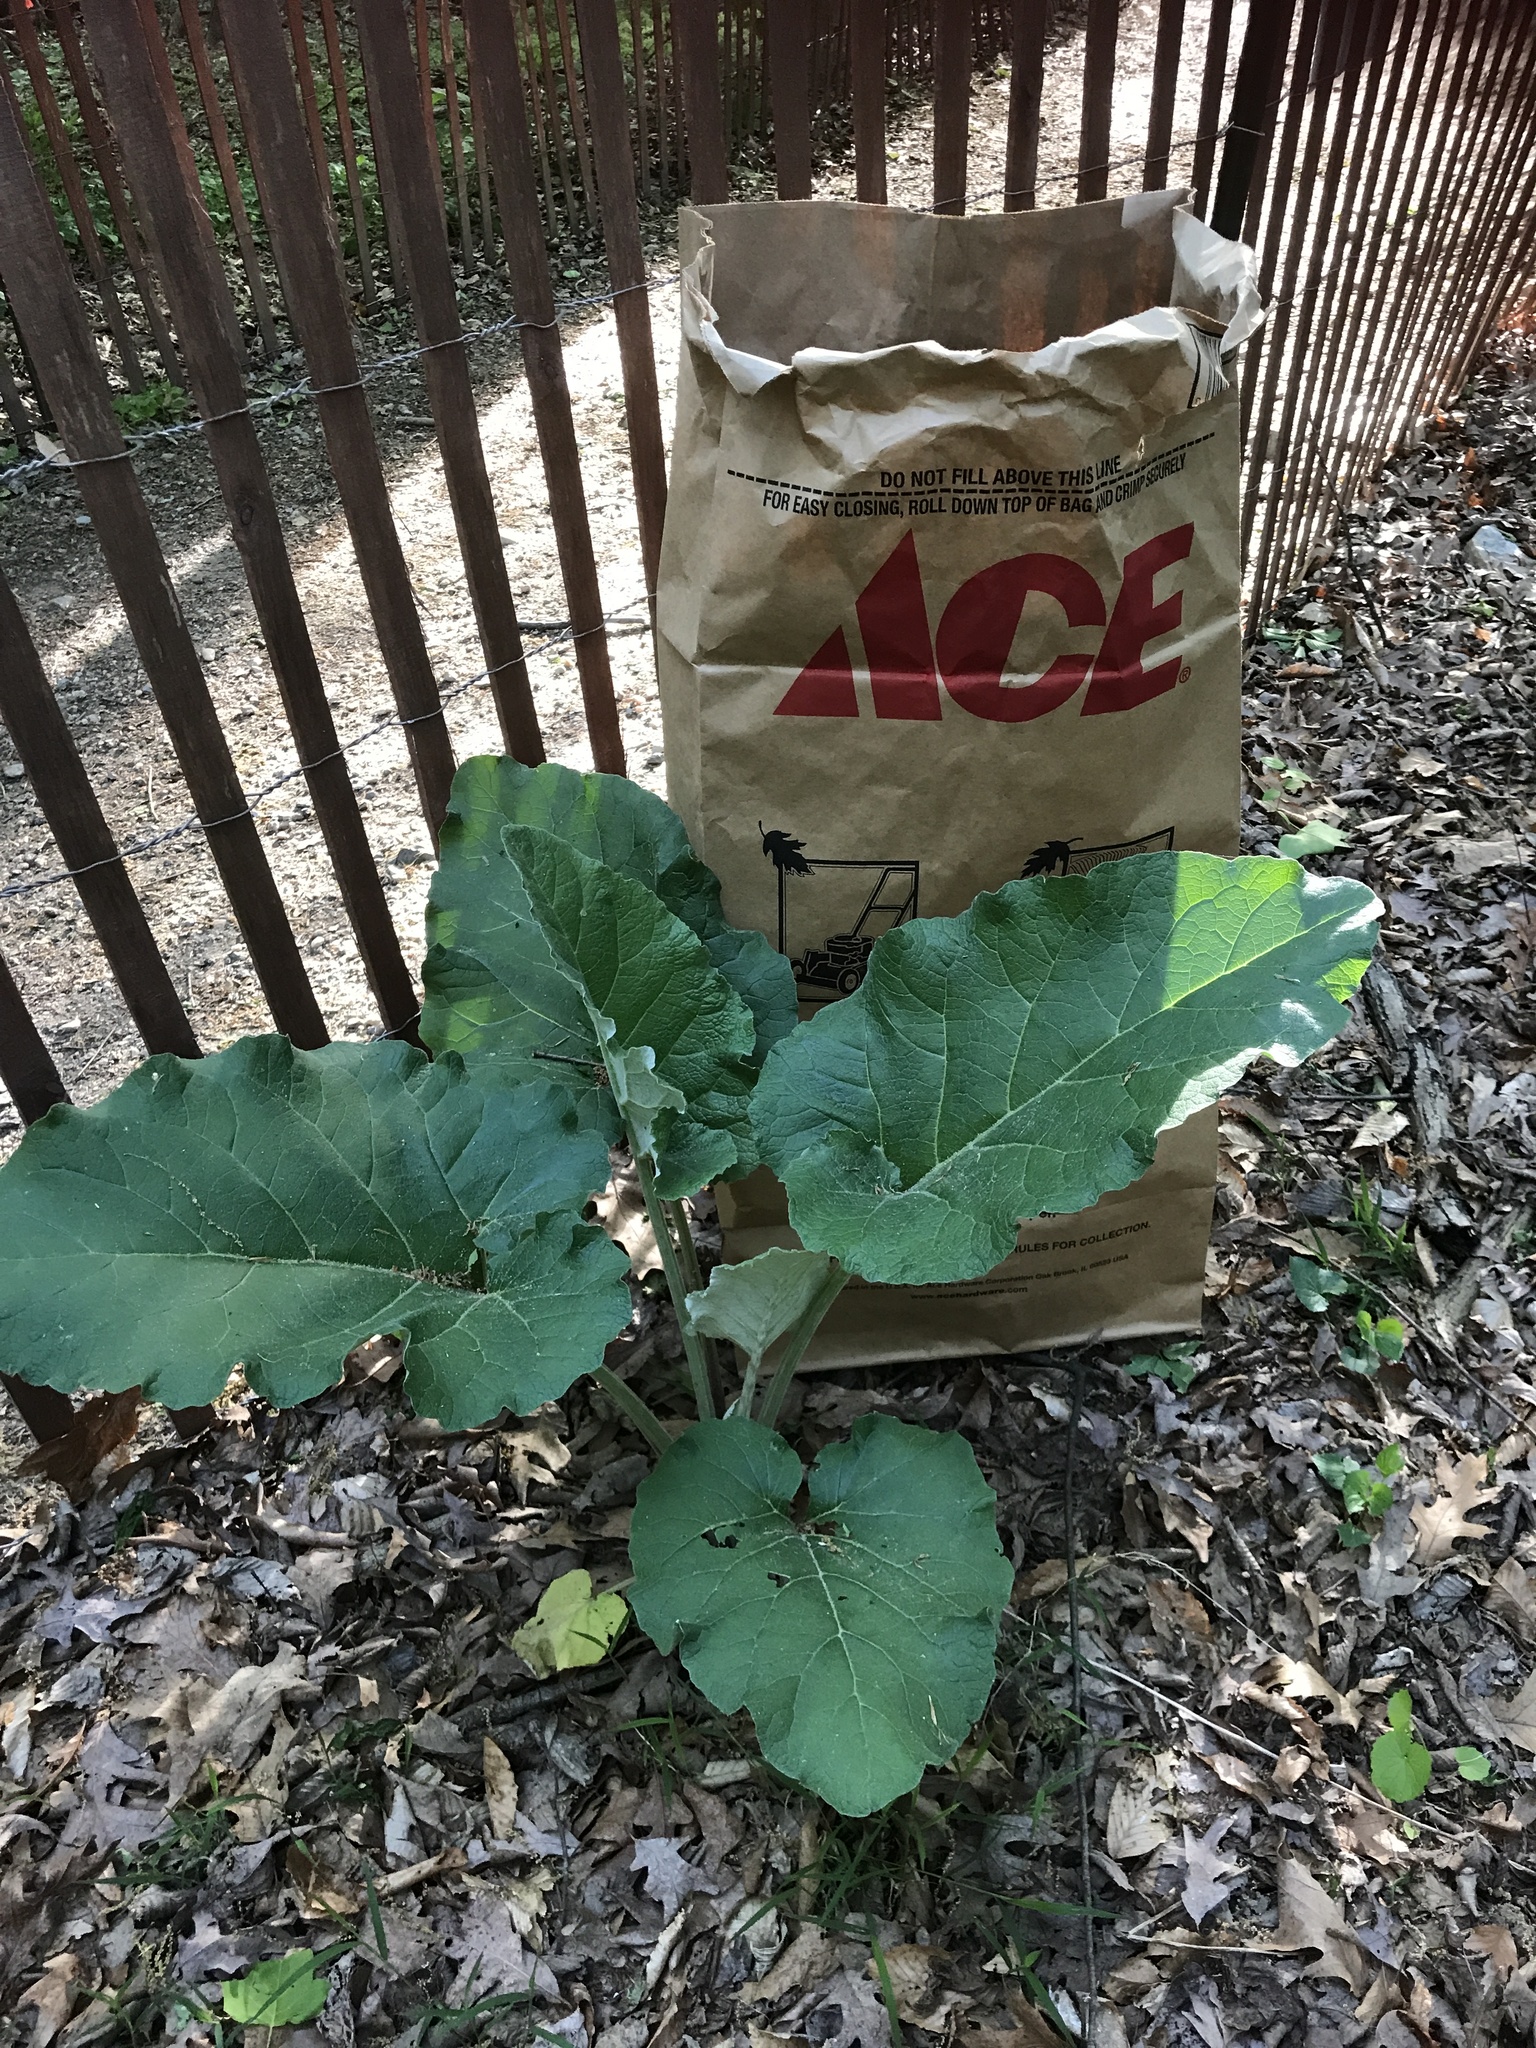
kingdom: Plantae
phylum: Tracheophyta
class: Magnoliopsida
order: Asterales
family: Asteraceae
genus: Arctium
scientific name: Arctium lappa
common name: Greater burdock
